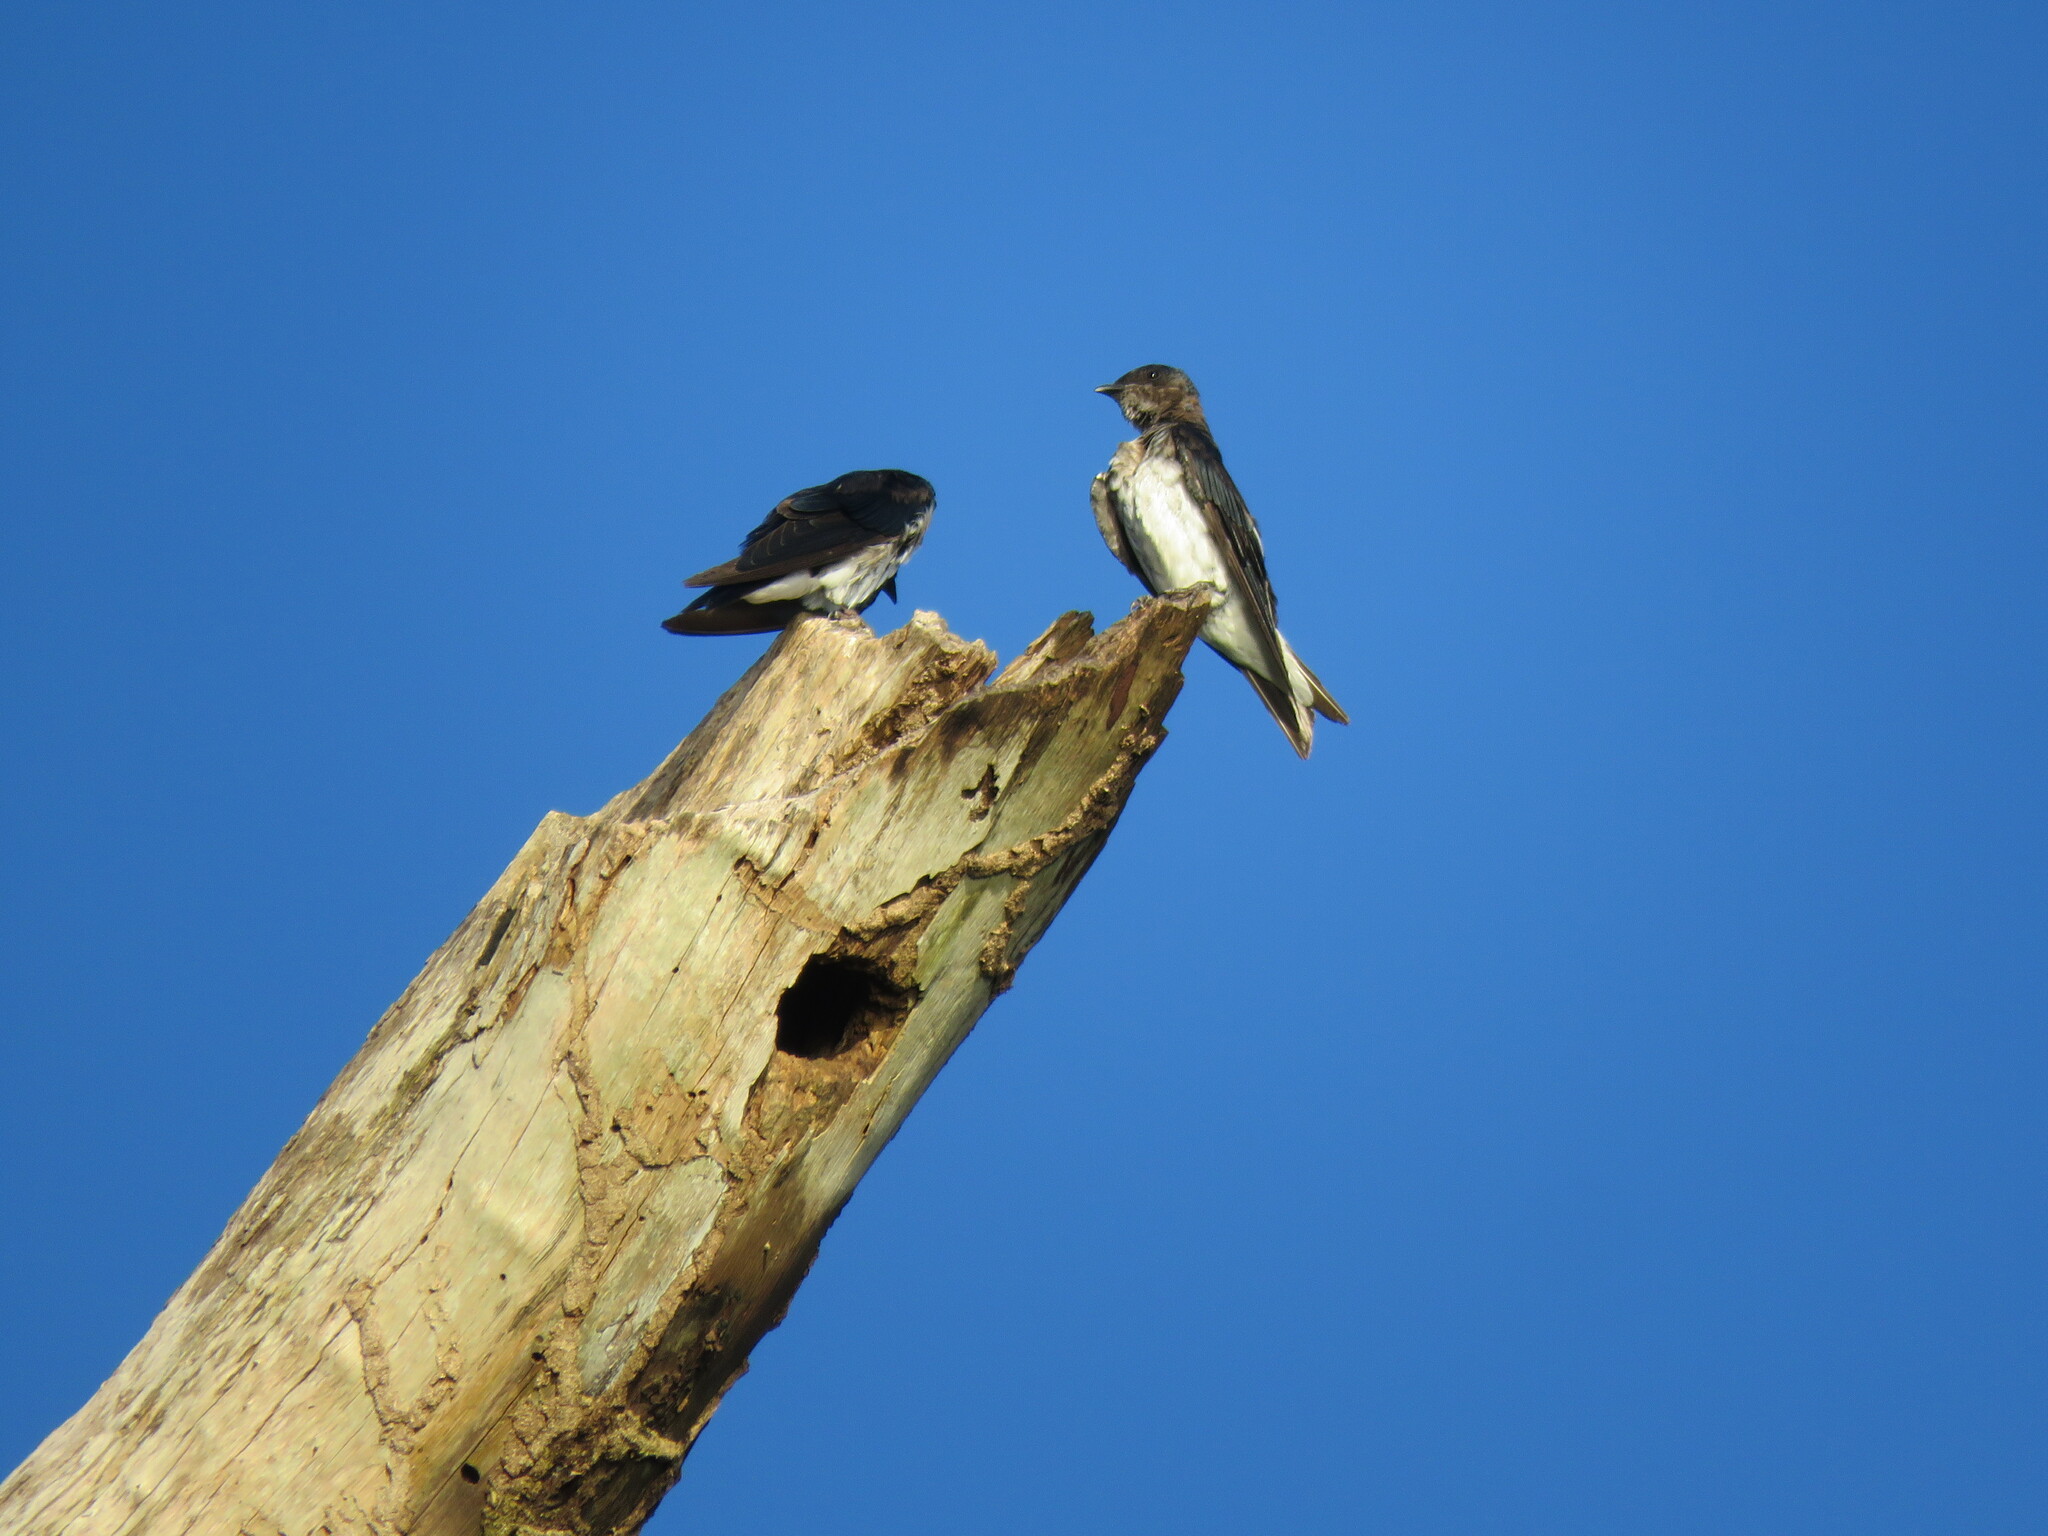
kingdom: Animalia
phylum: Chordata
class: Aves
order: Passeriformes
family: Hirundinidae
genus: Progne
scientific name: Progne chalybea
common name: Grey-breasted martin
